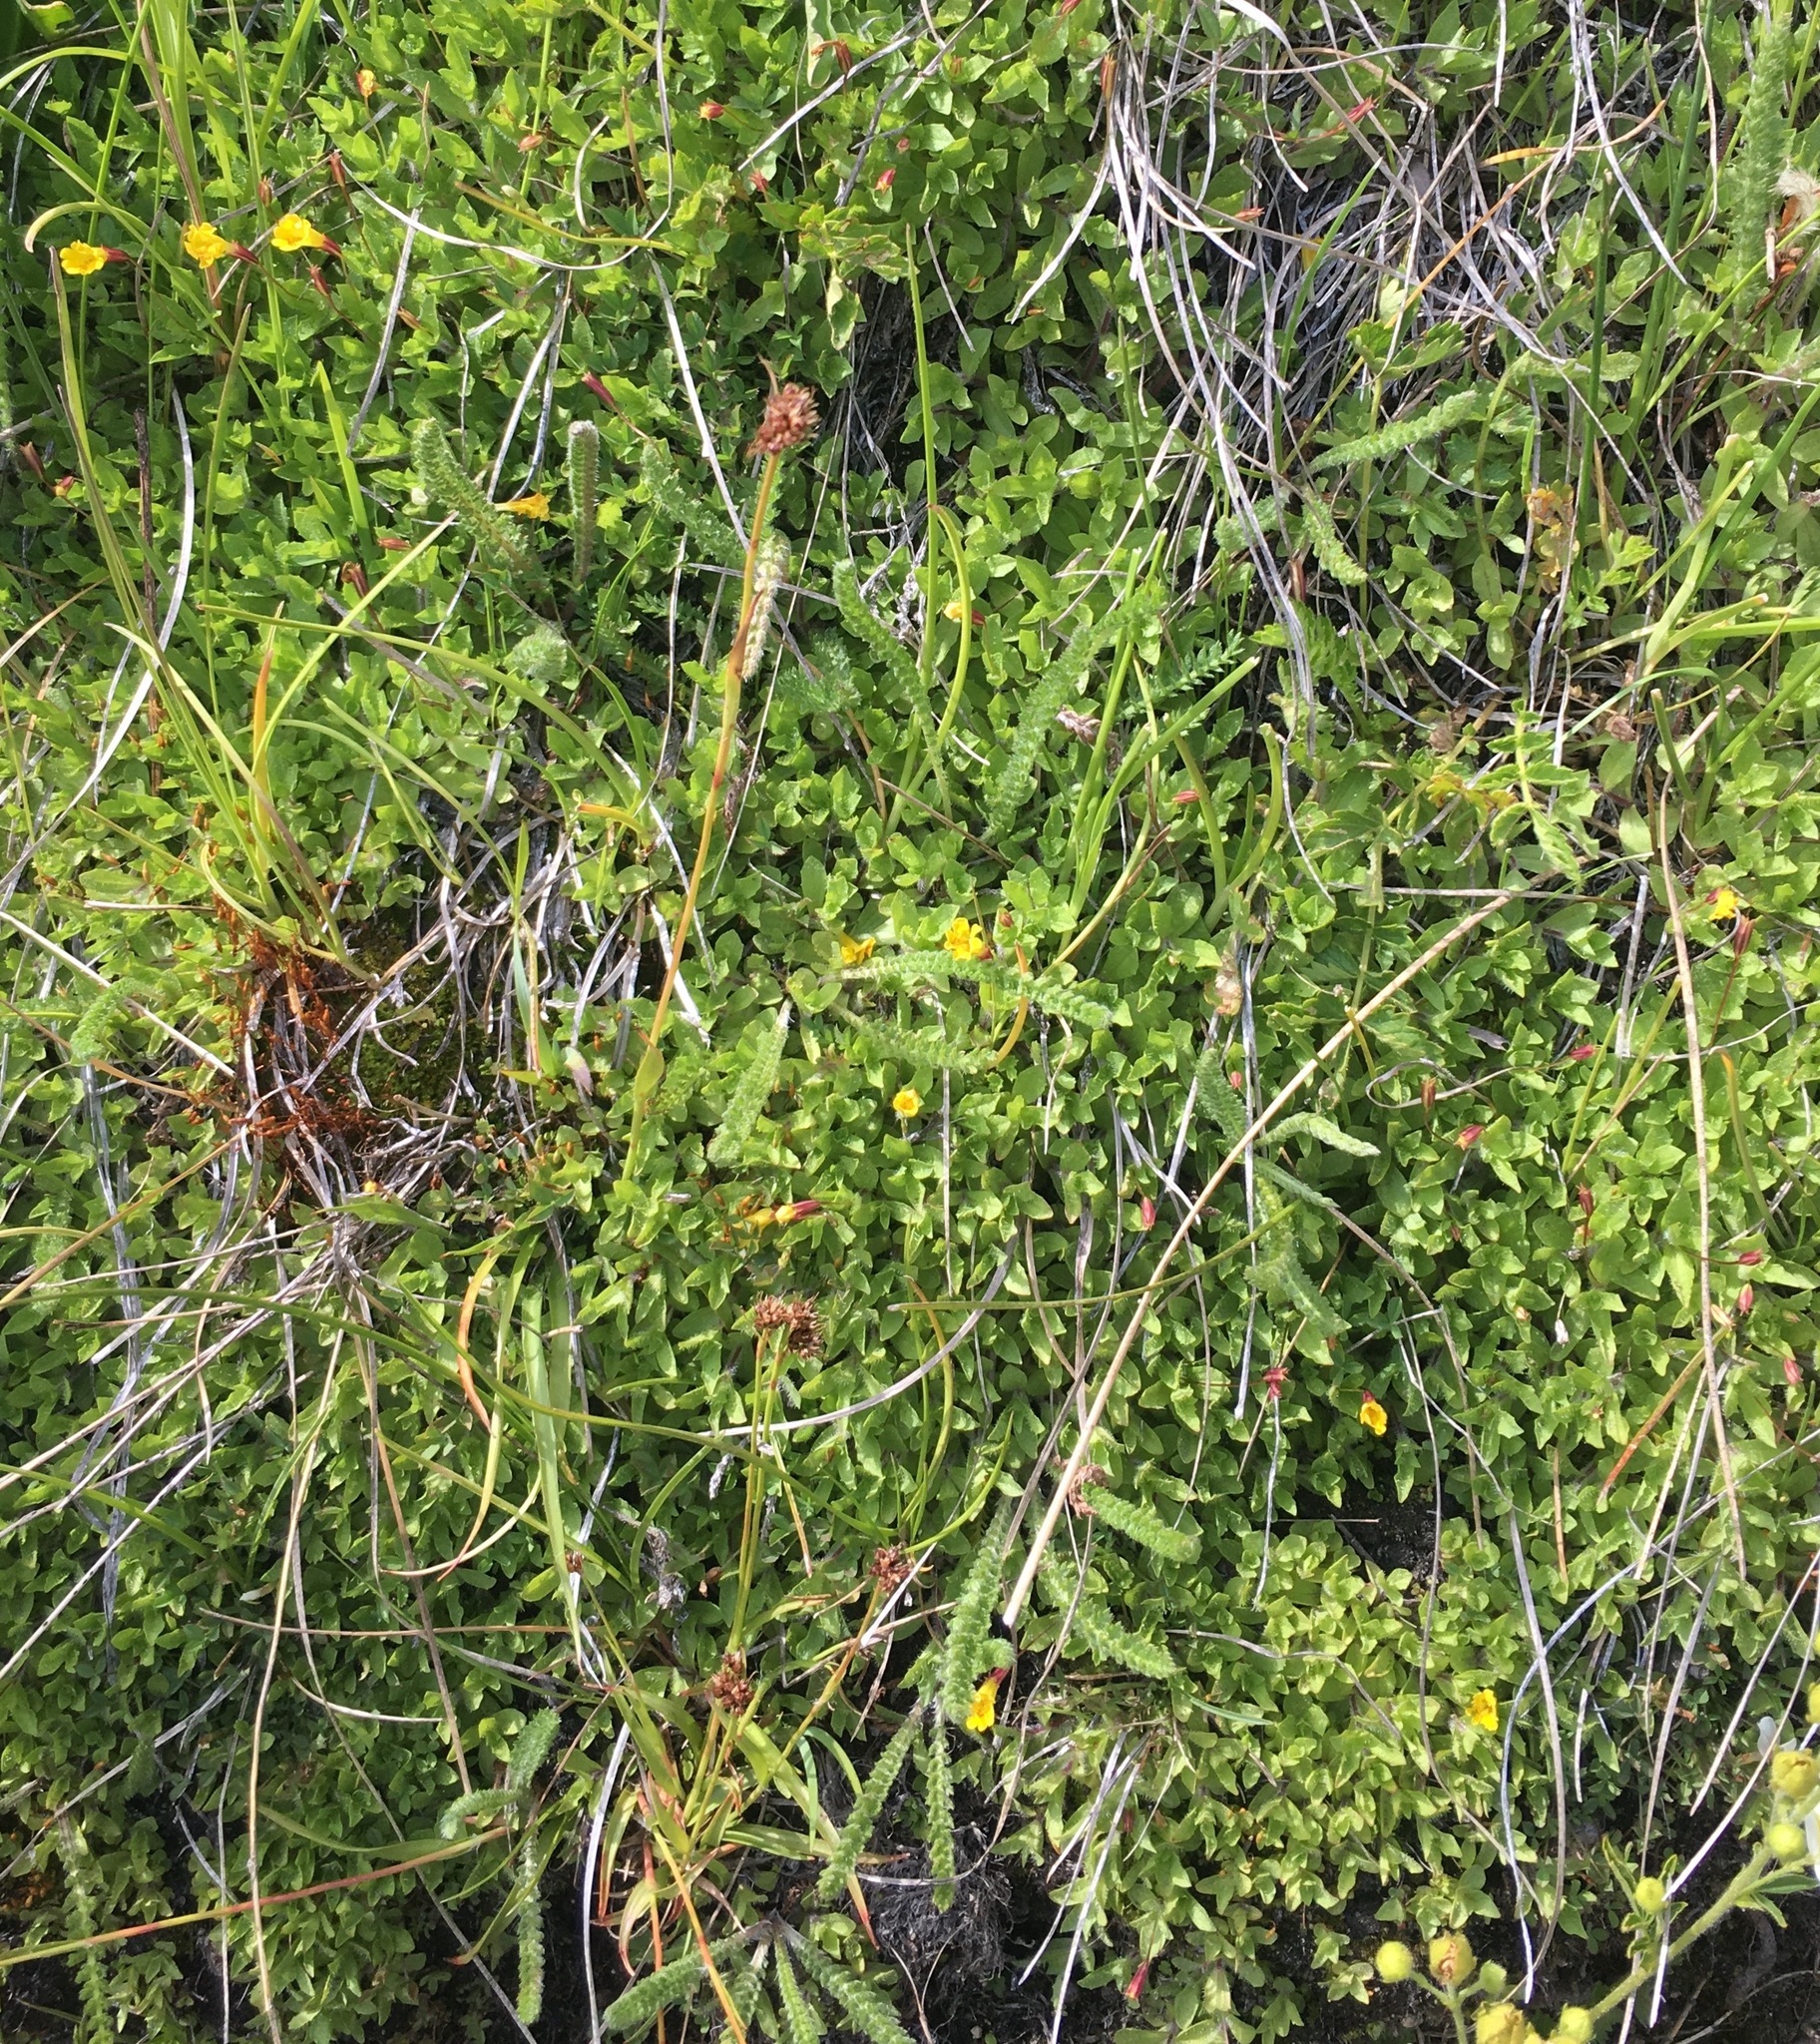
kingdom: Plantae
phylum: Tracheophyta
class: Magnoliopsida
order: Lamiales
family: Phrymaceae
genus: Erythranthe
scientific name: Erythranthe primuloides
